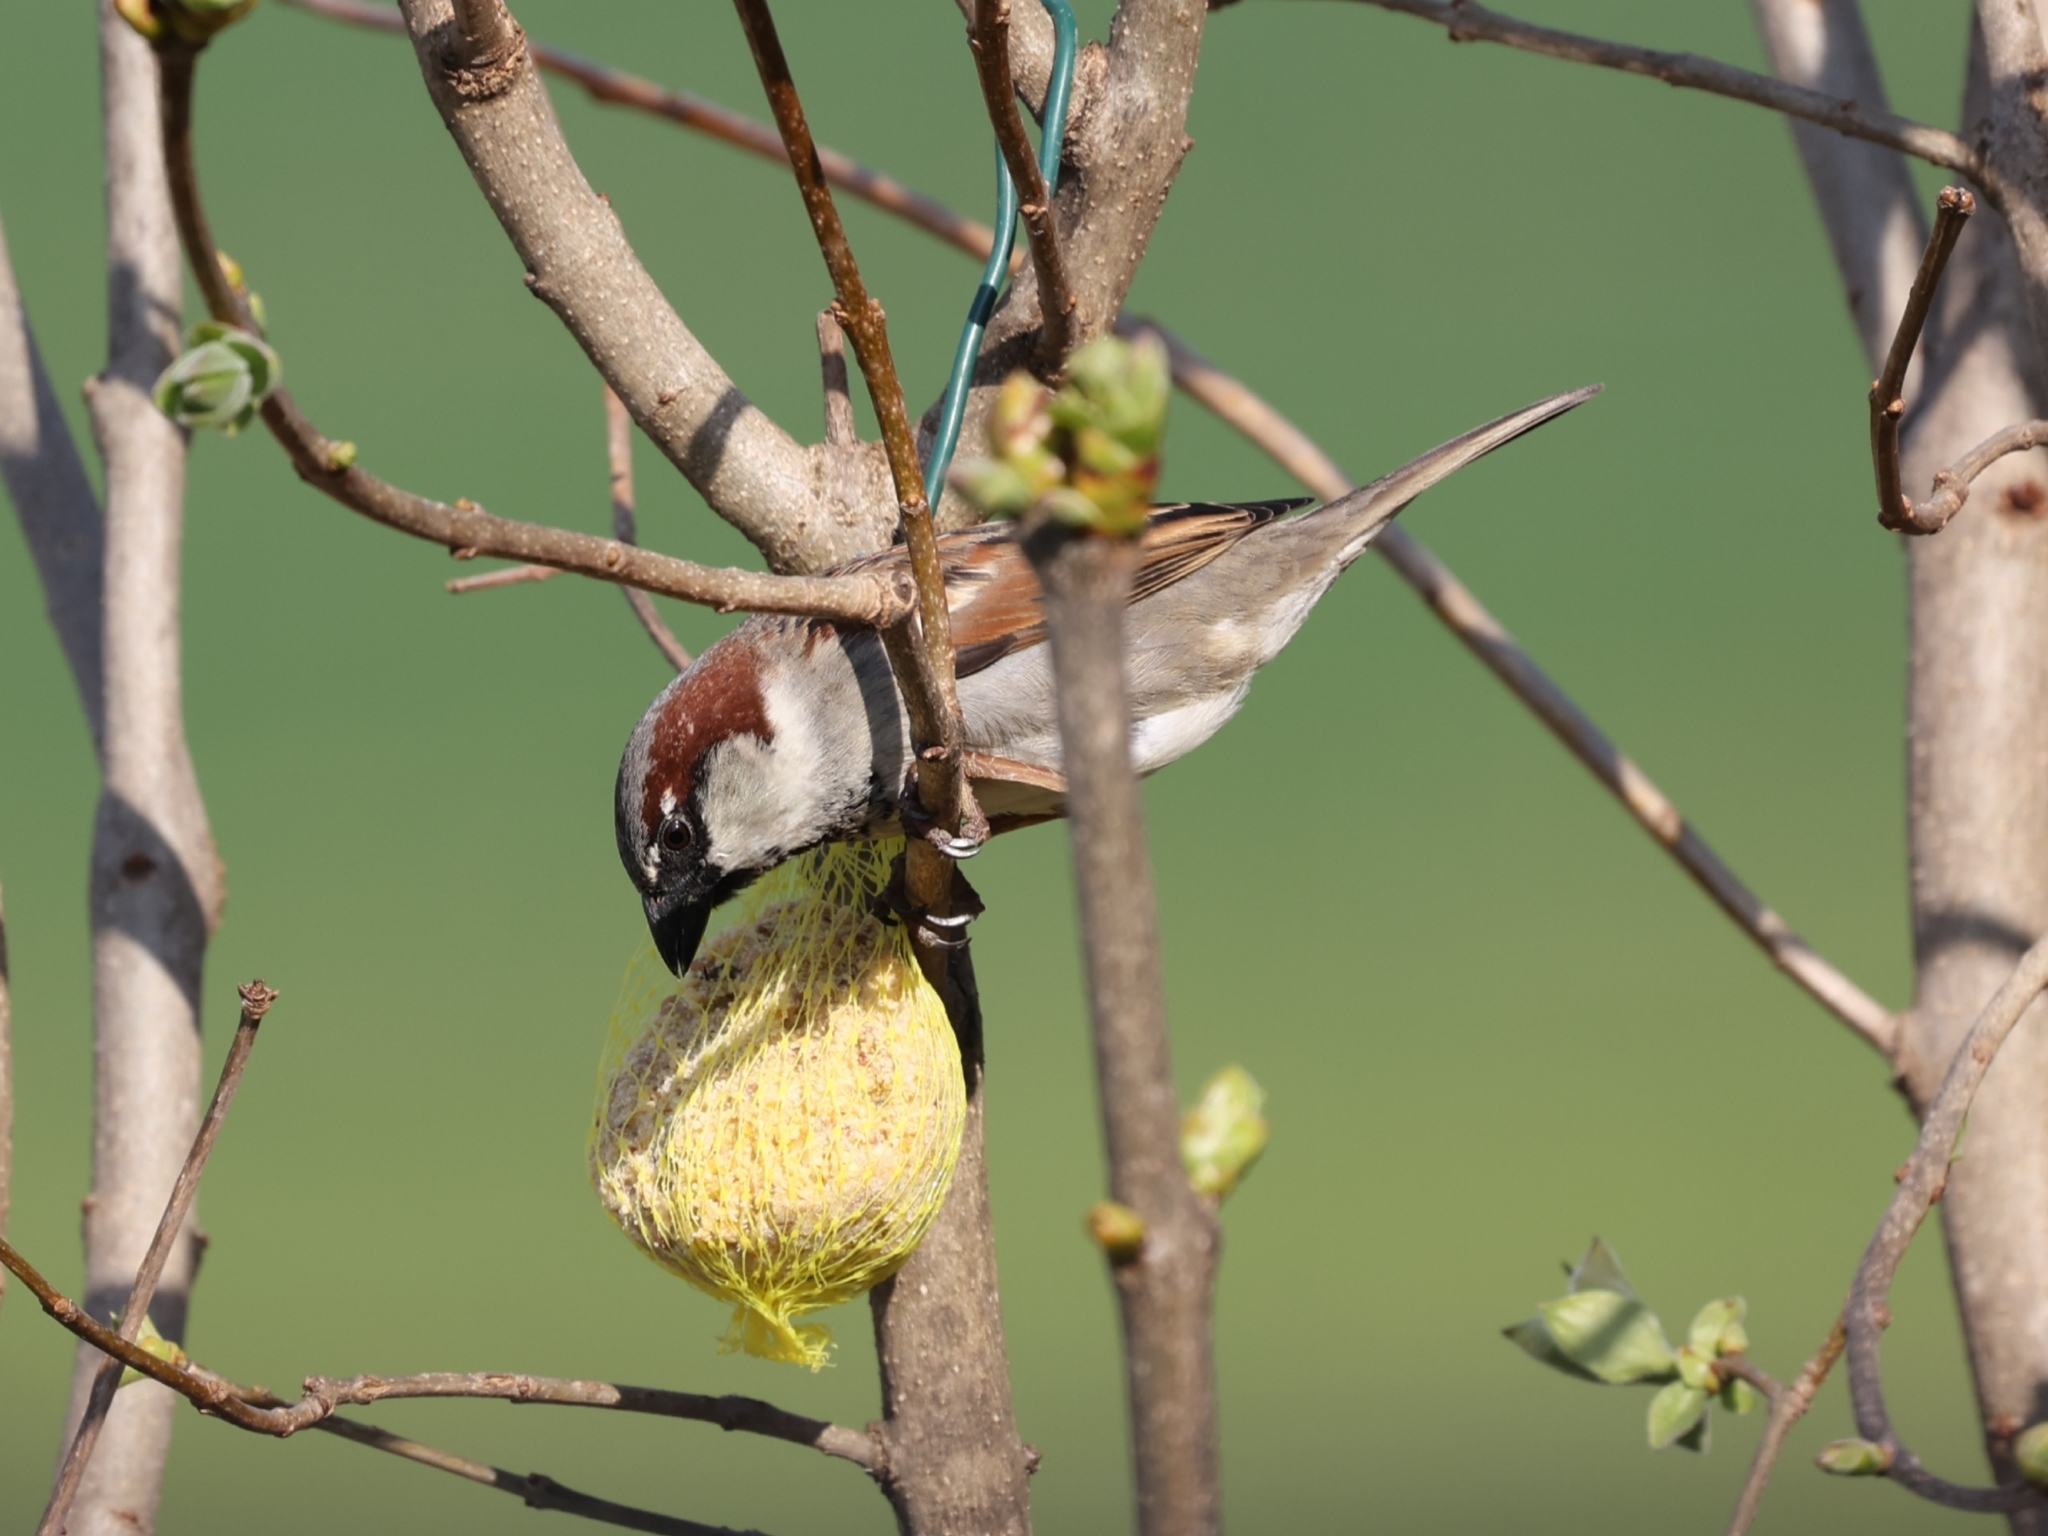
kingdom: Animalia
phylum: Chordata
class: Aves
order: Passeriformes
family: Passeridae
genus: Passer
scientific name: Passer domesticus
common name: House sparrow
